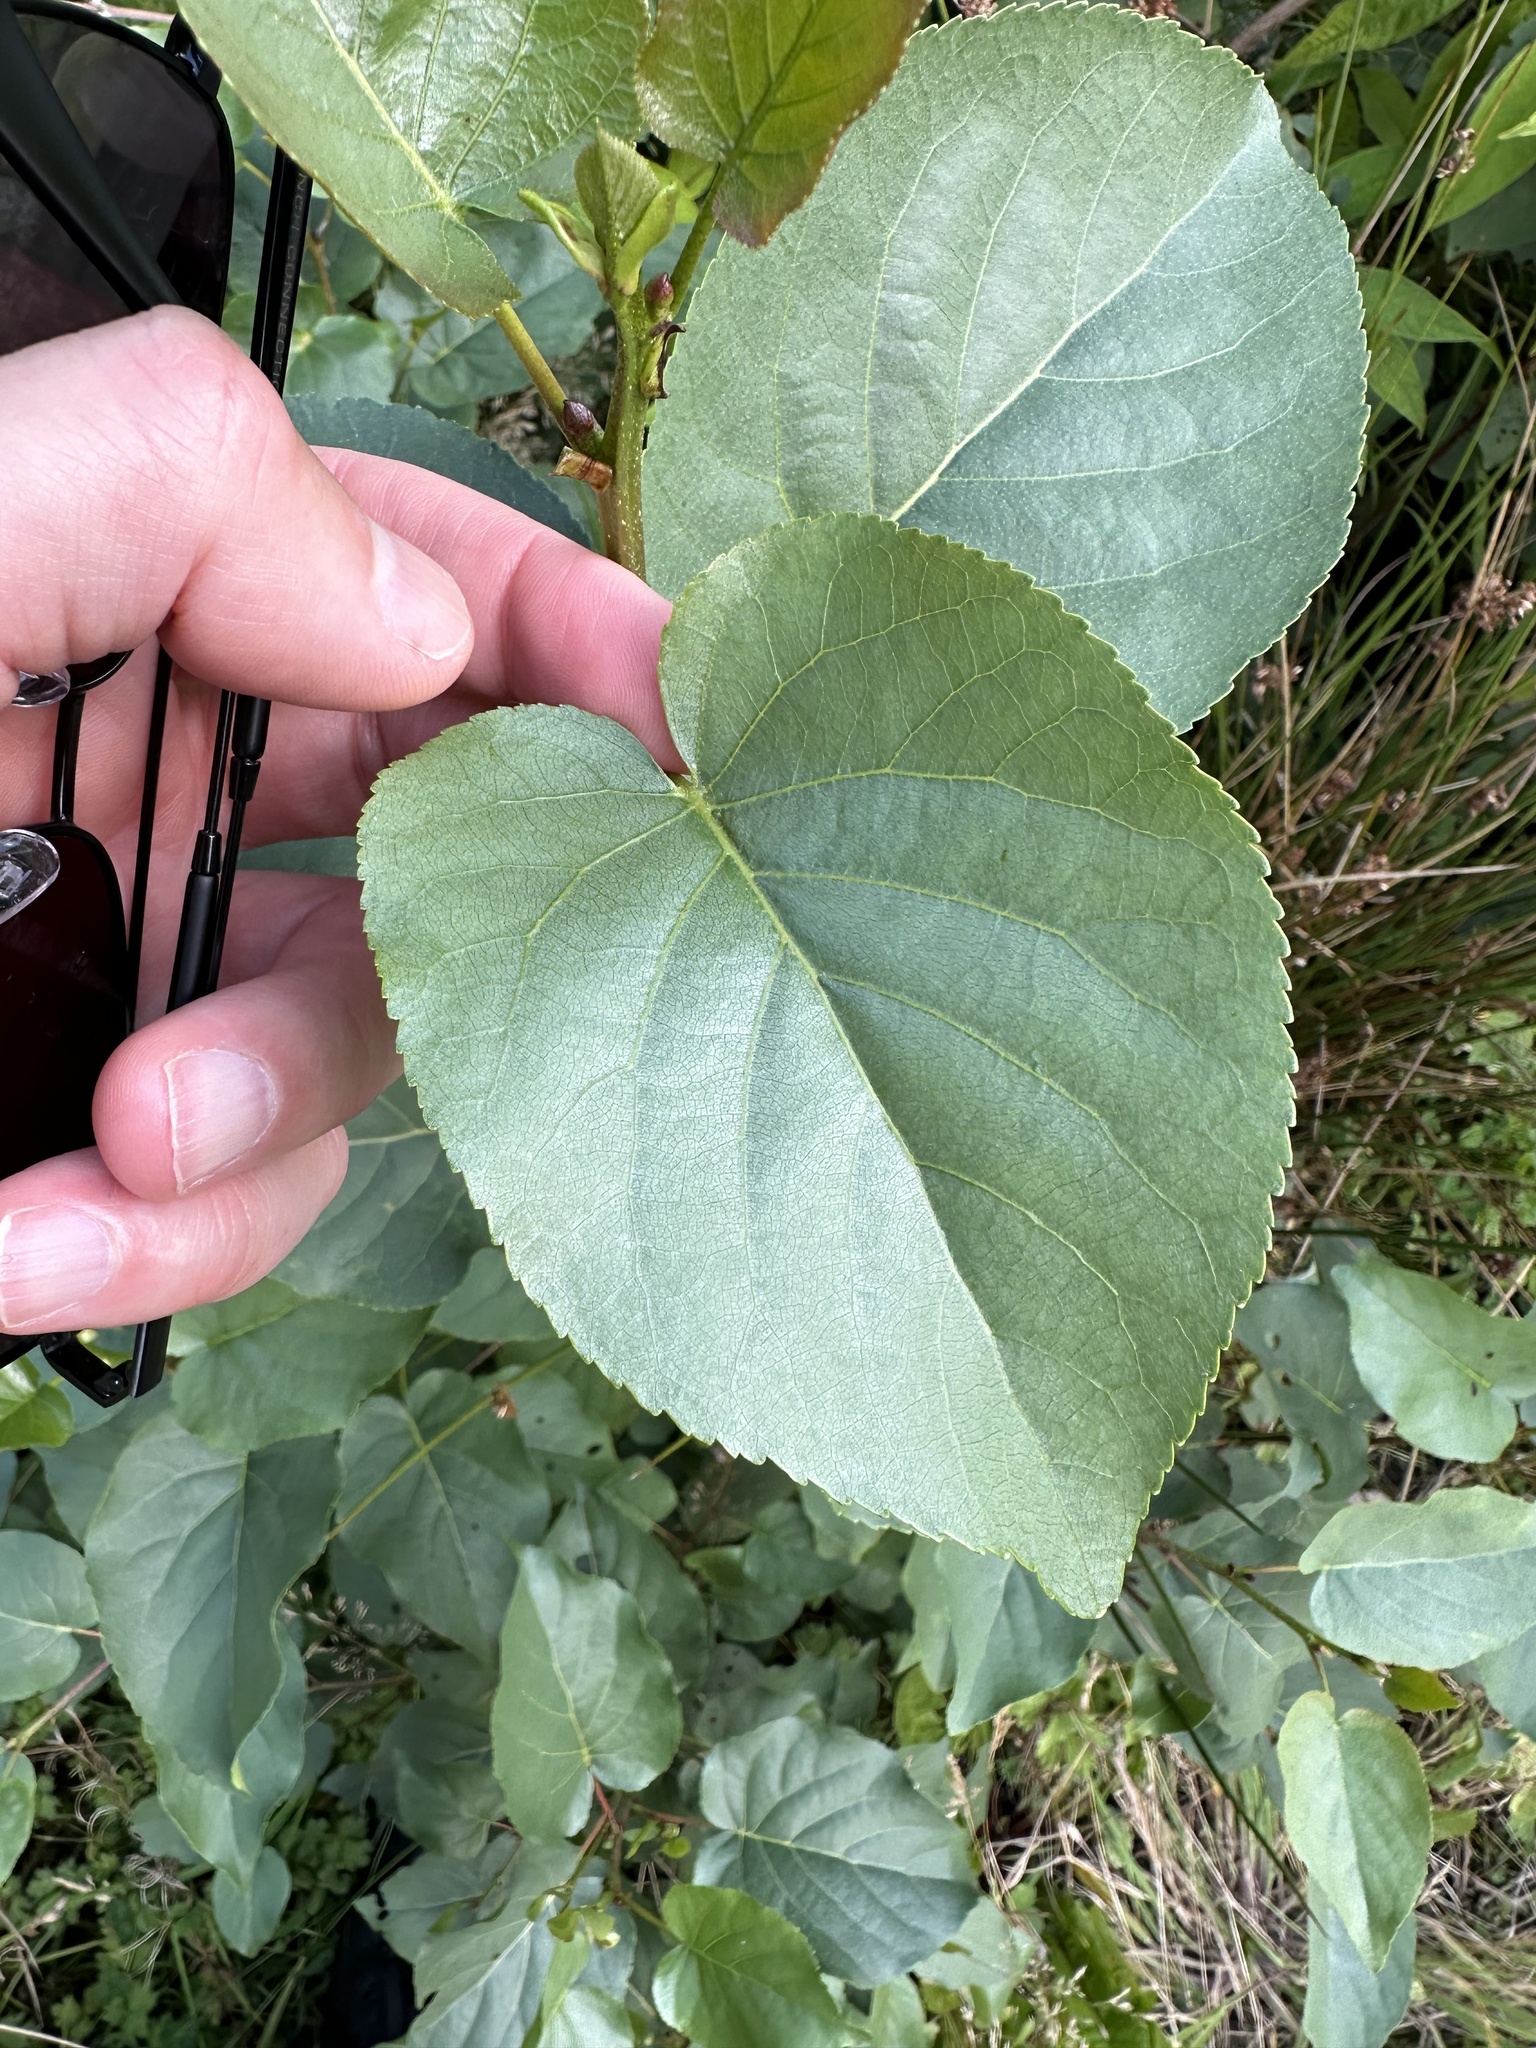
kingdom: Plantae
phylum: Tracheophyta
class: Magnoliopsida
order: Fagales
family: Betulaceae
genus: Alnus
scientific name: Alnus cordata
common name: Italian alder
